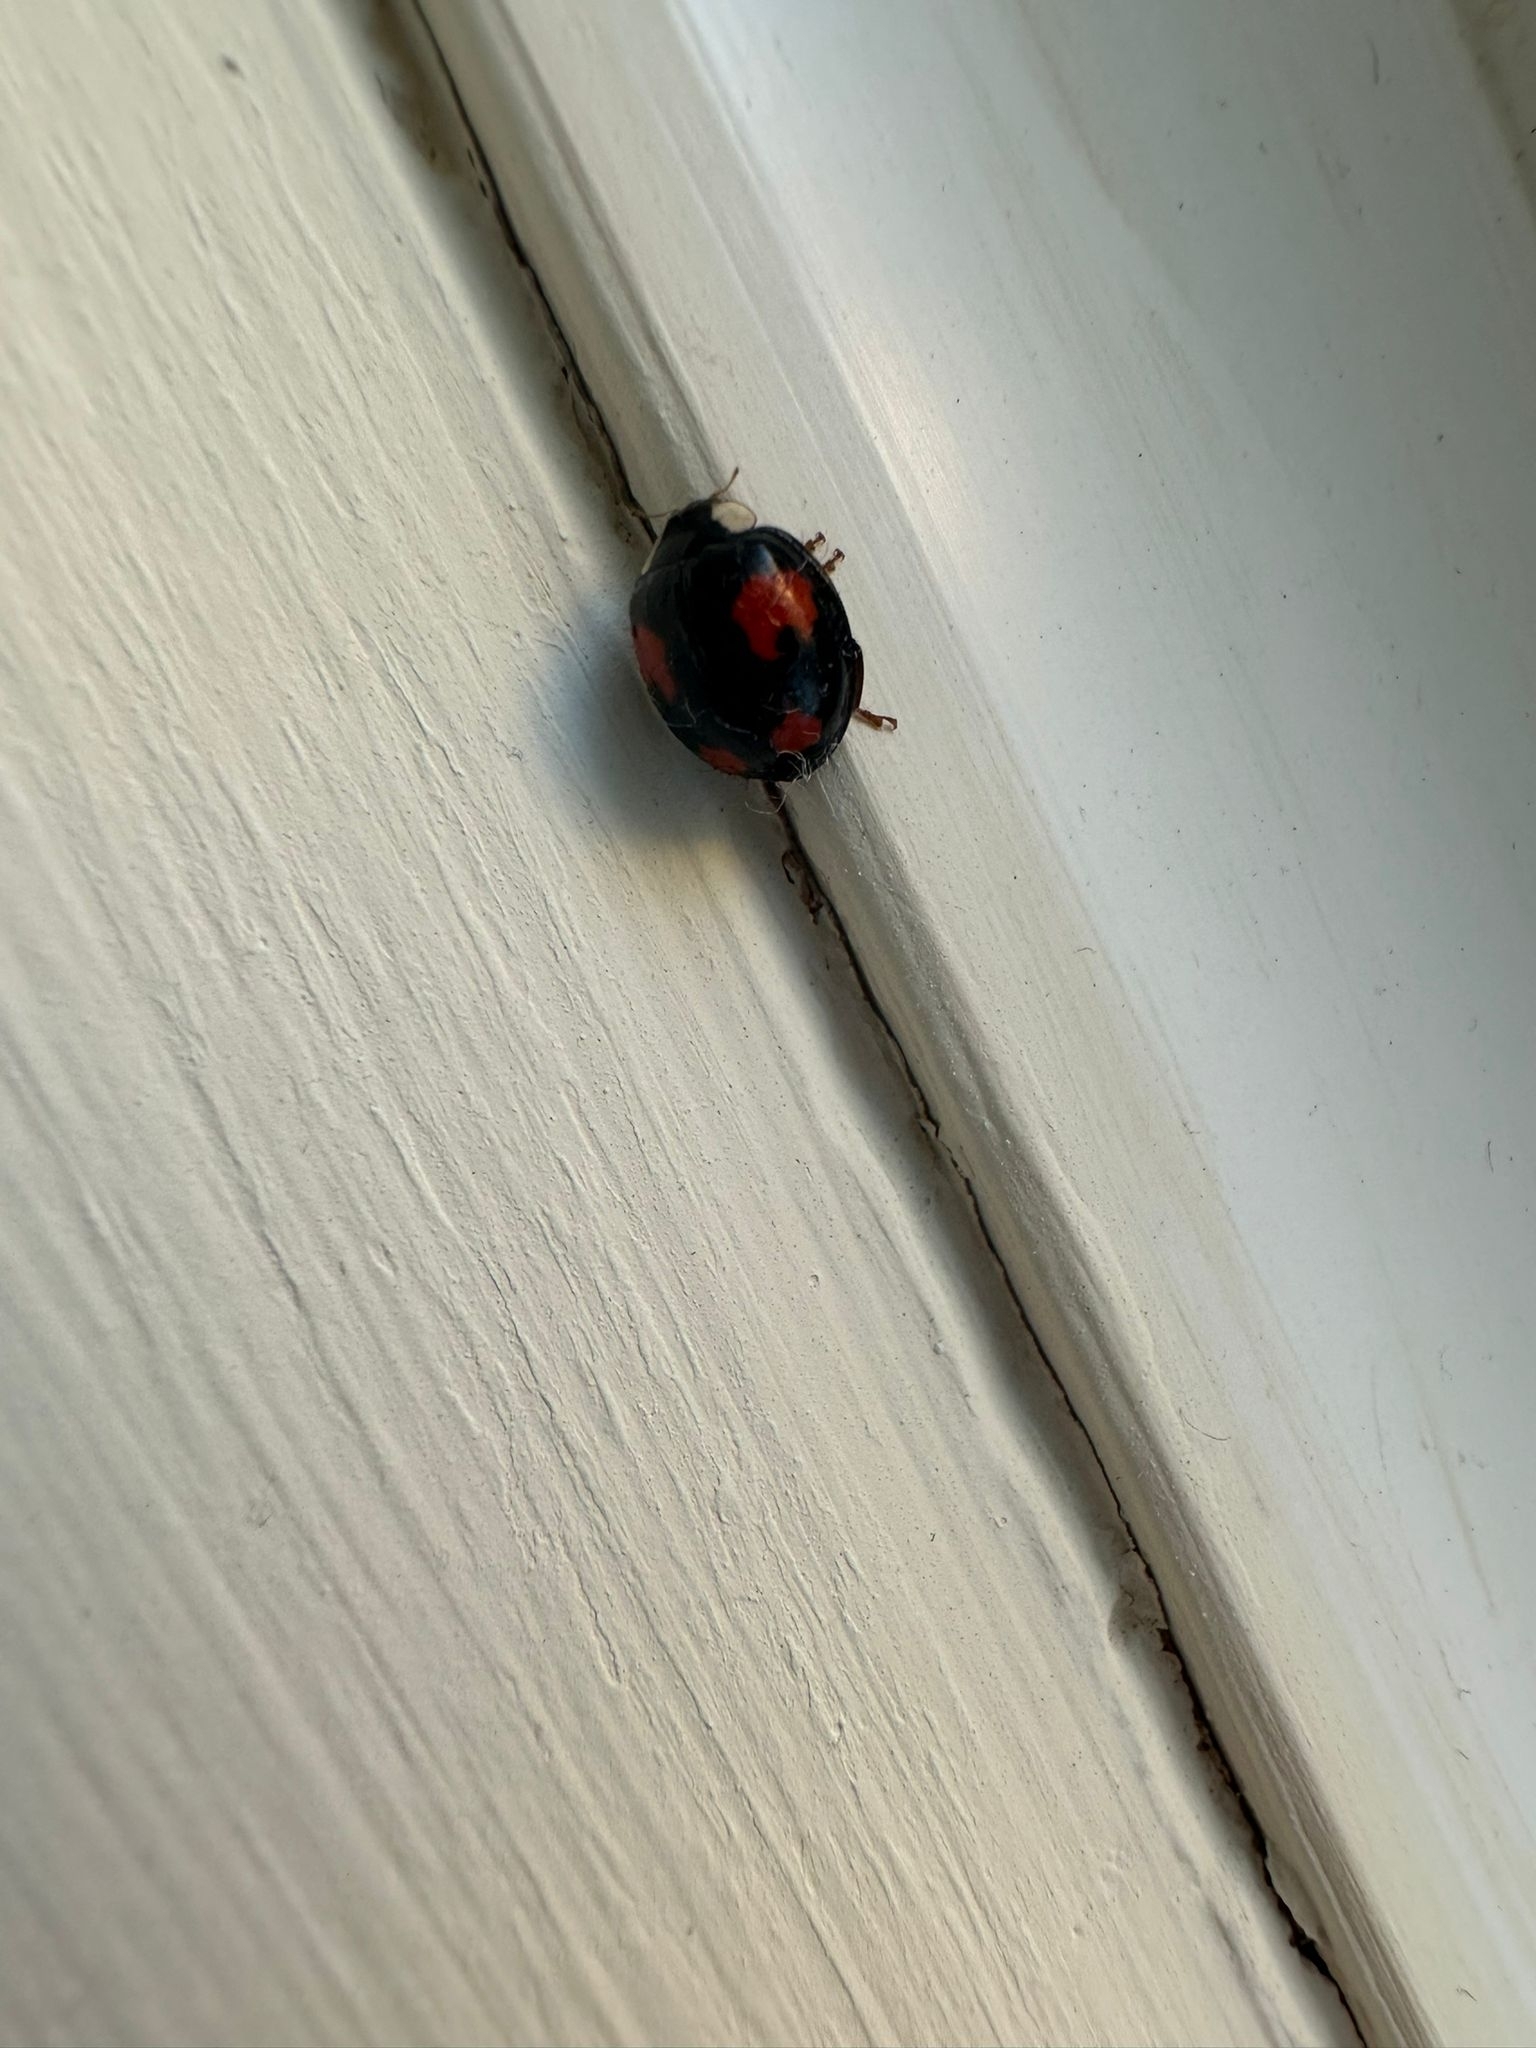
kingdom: Animalia
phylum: Arthropoda
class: Insecta
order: Coleoptera
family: Coccinellidae
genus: Harmonia
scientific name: Harmonia axyridis
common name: Harlequin ladybird
